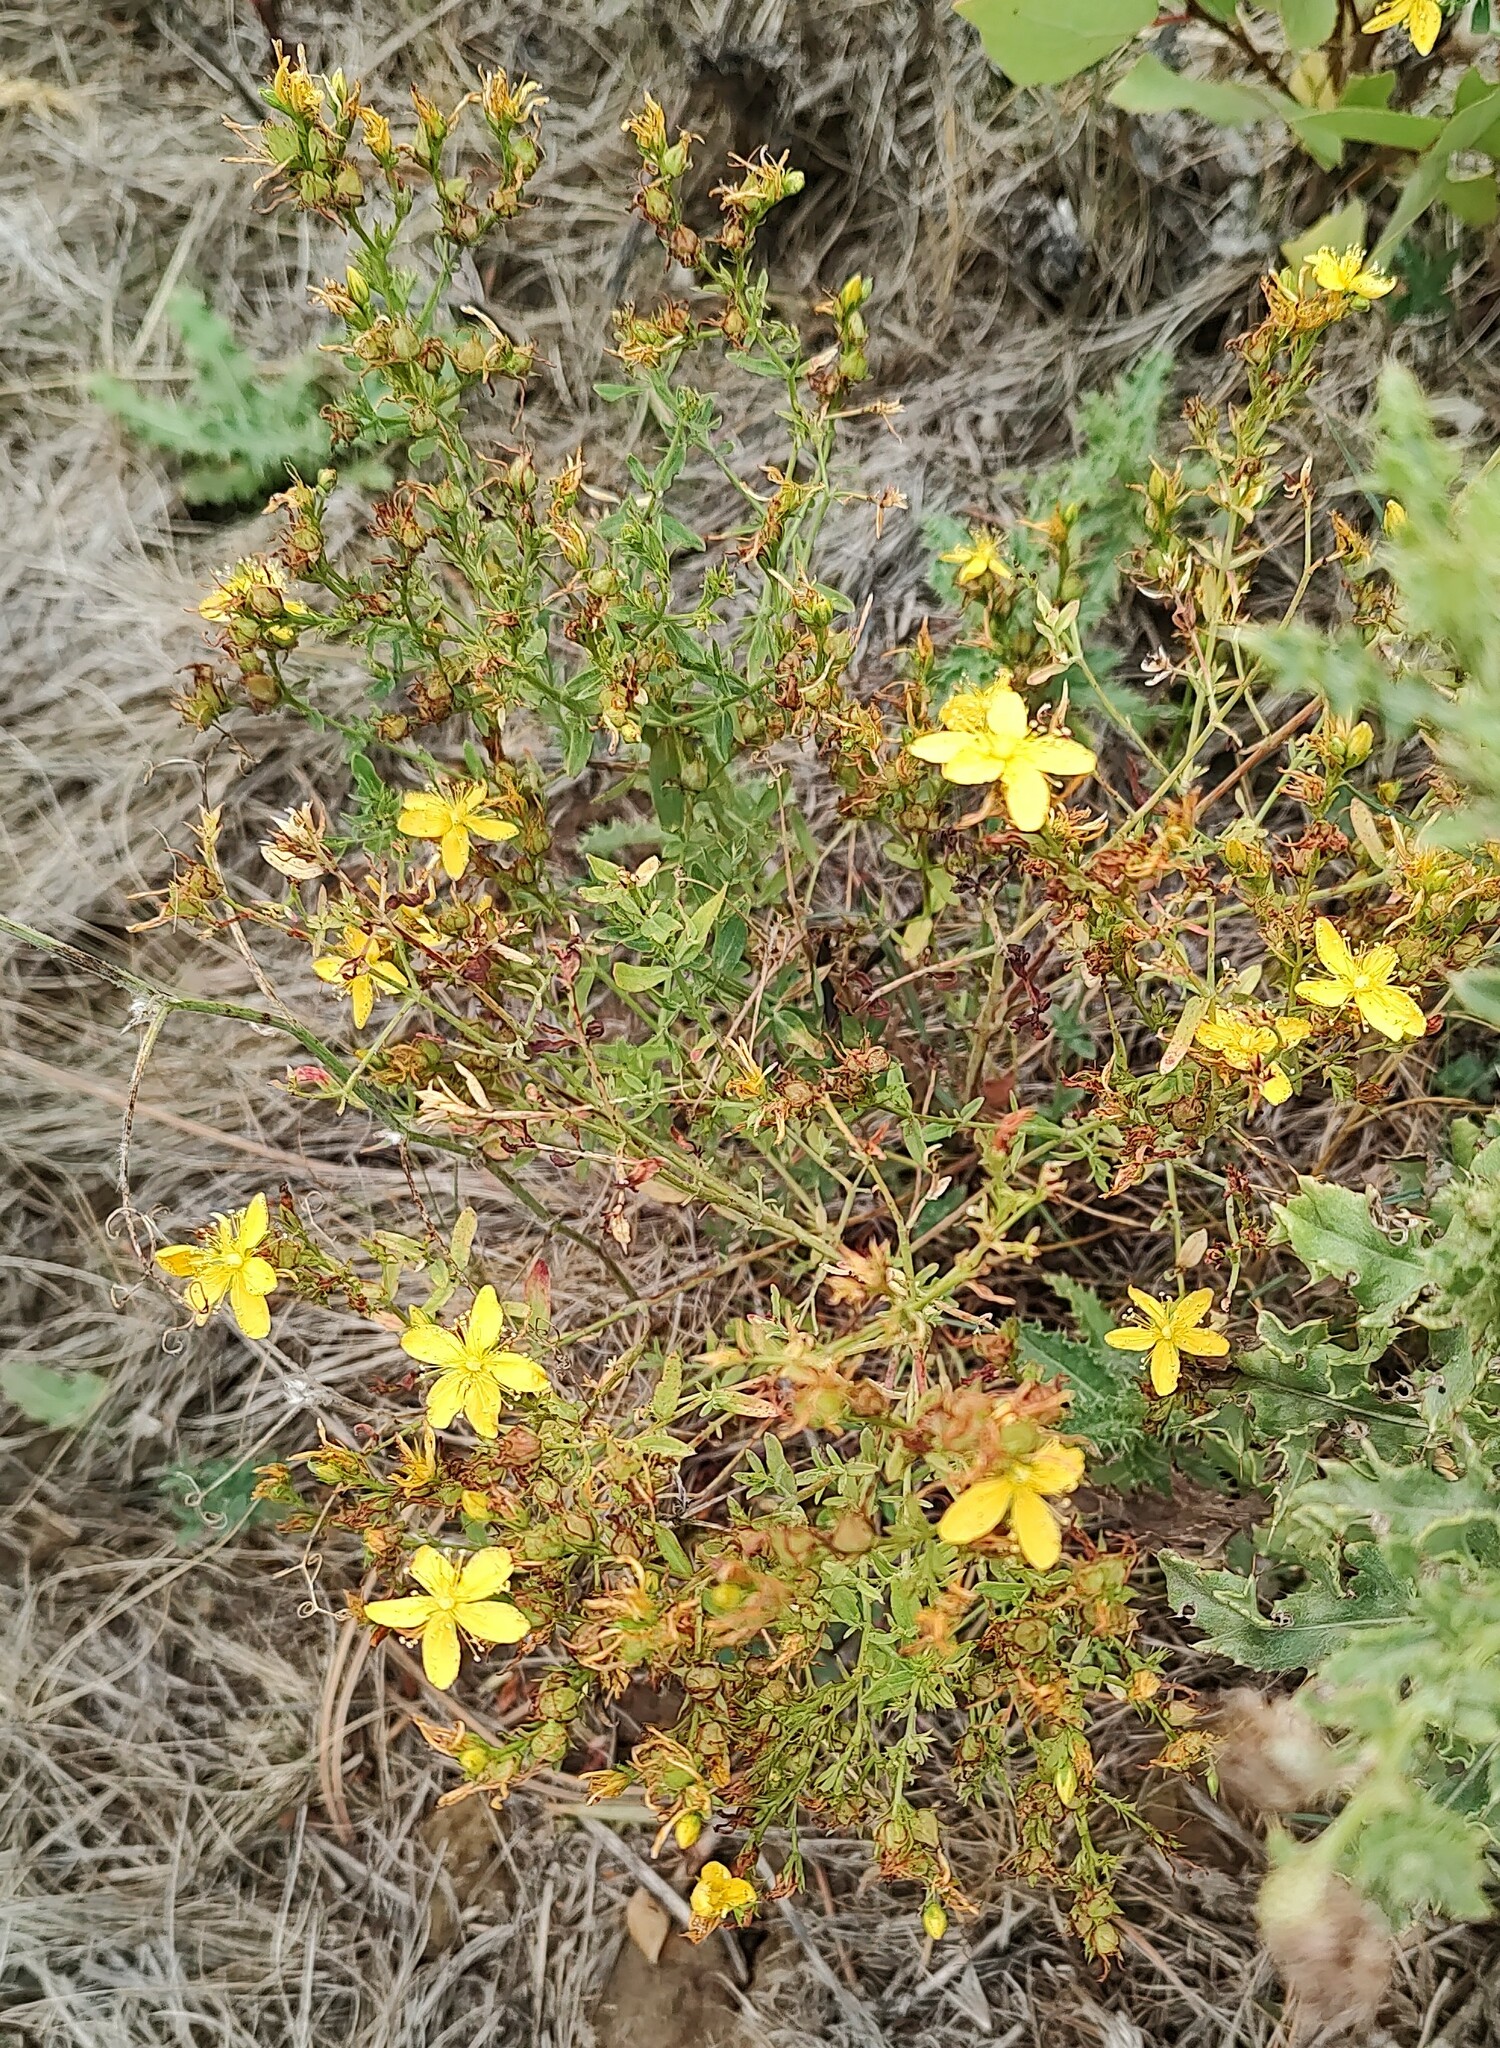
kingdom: Plantae
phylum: Tracheophyta
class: Magnoliopsida
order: Malpighiales
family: Hypericaceae
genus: Hypericum
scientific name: Hypericum perforatum
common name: Common st. johnswort
